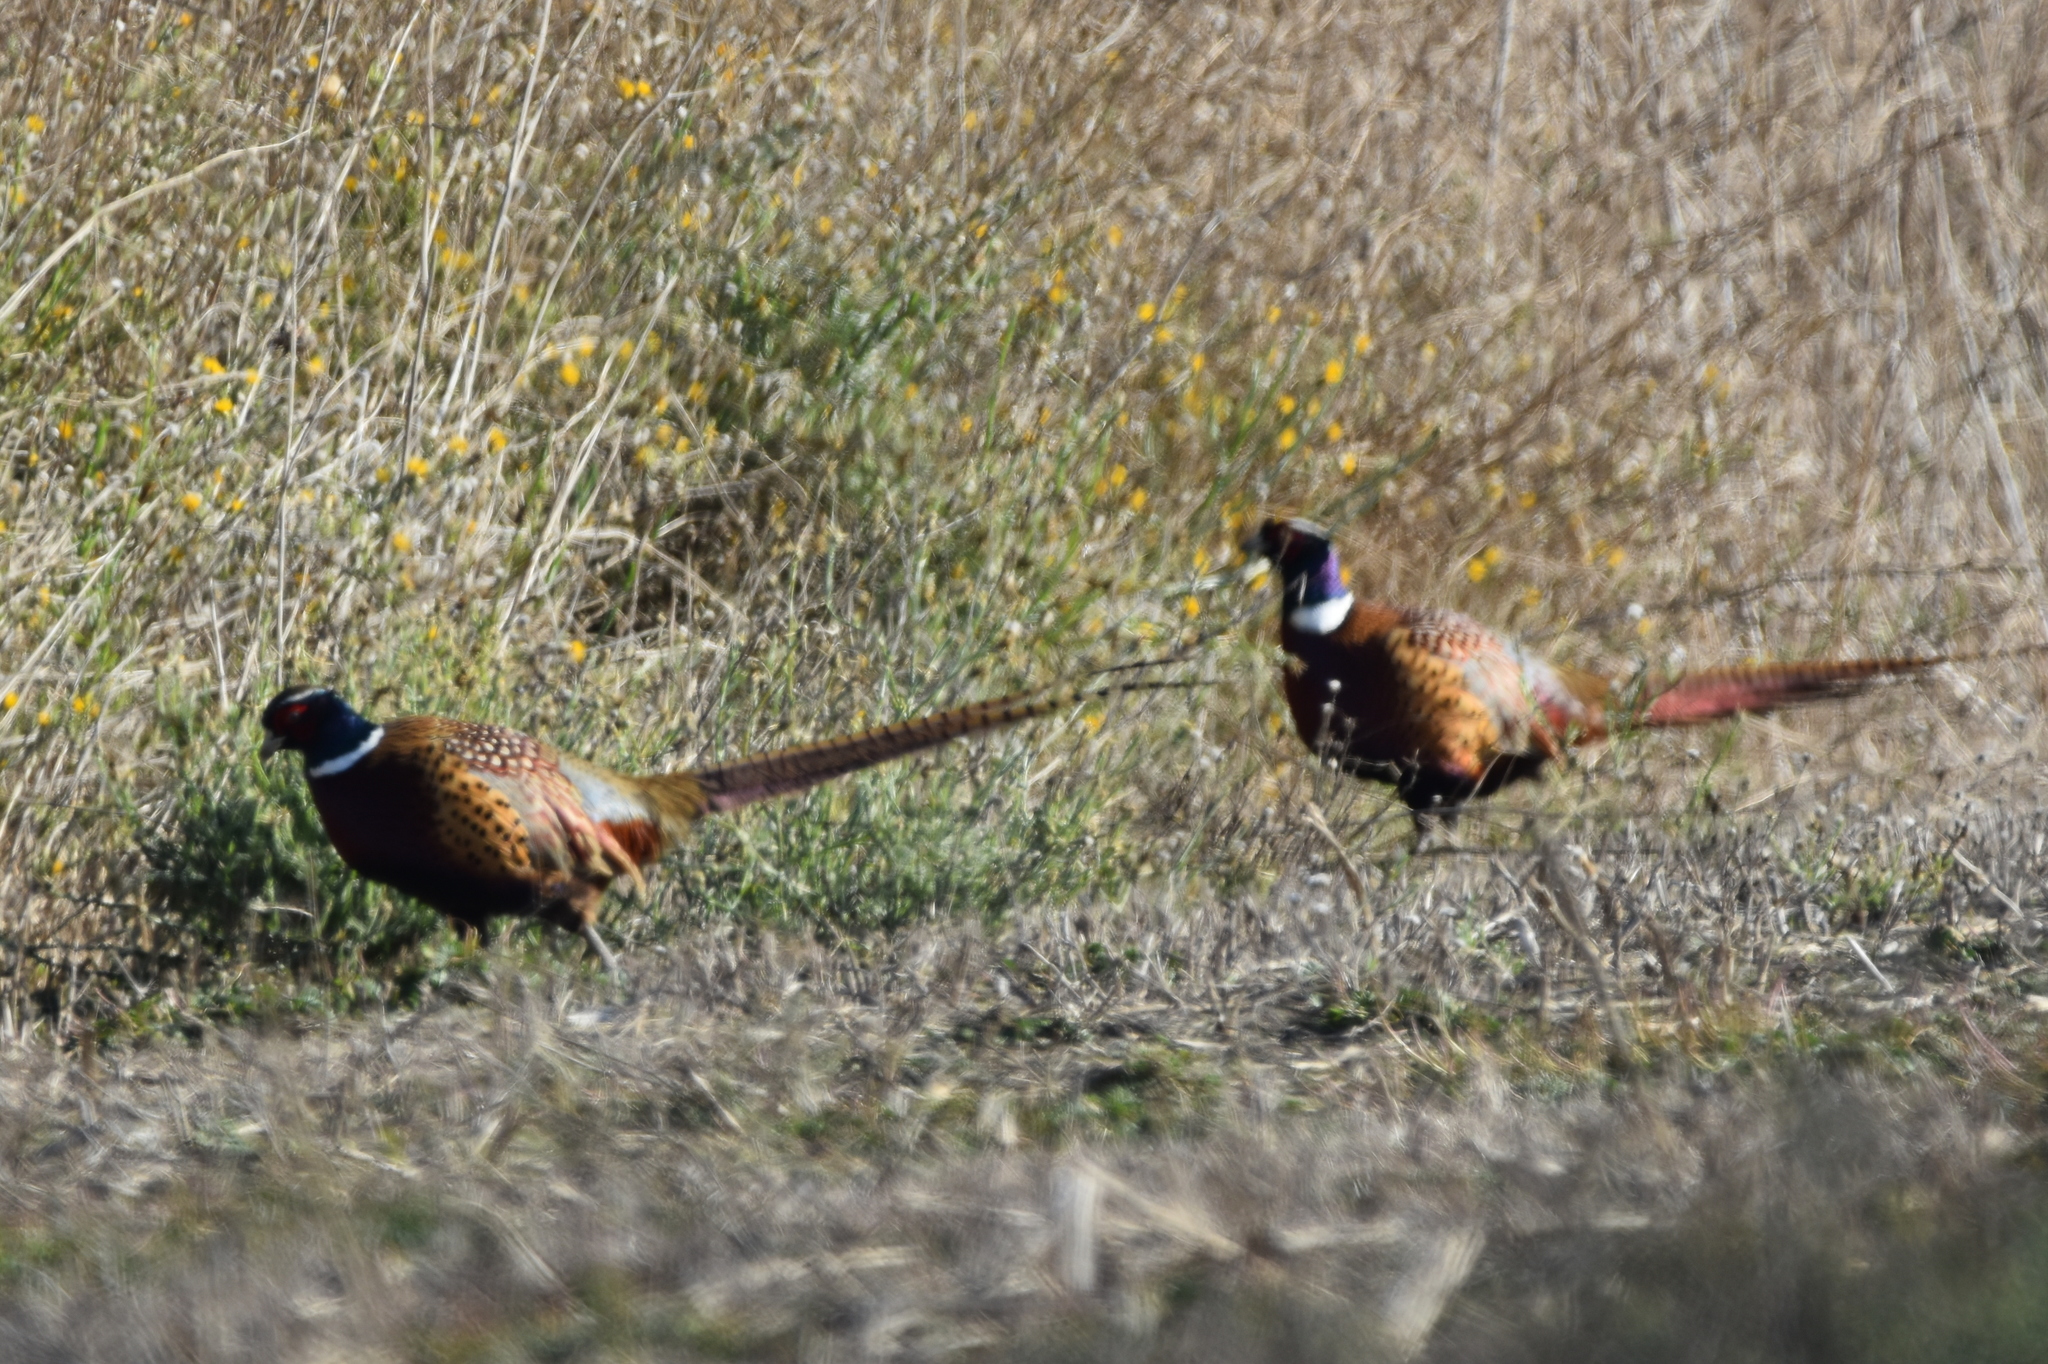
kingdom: Animalia
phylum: Chordata
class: Aves
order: Galliformes
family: Phasianidae
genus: Phasianus
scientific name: Phasianus colchicus
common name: Common pheasant
